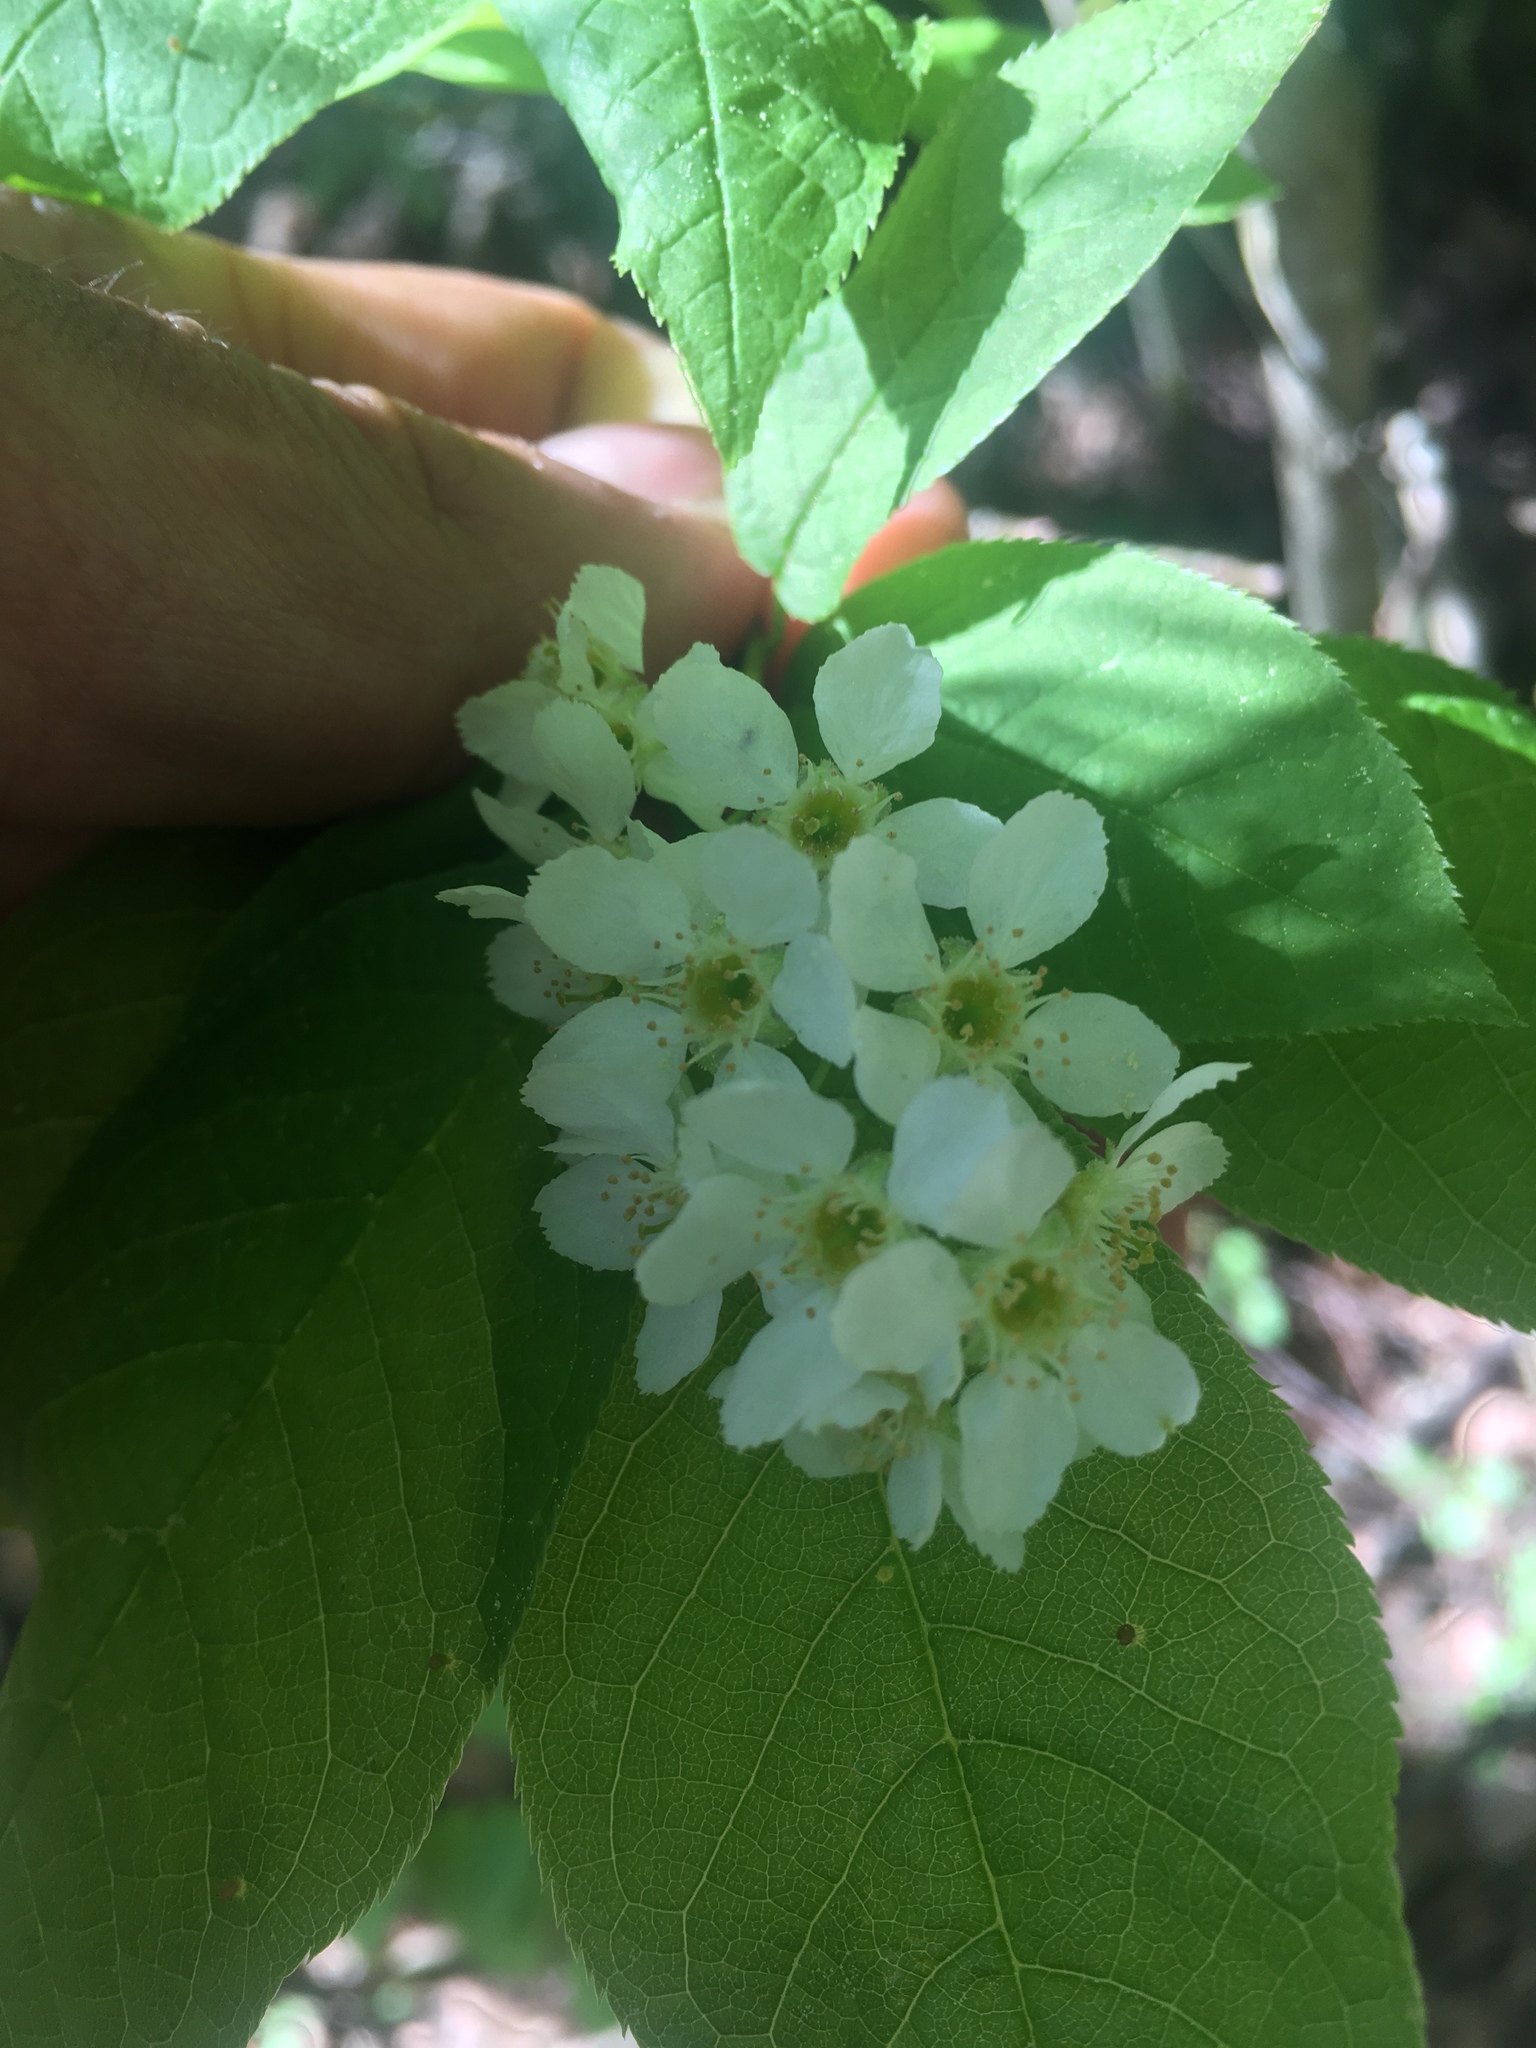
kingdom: Plantae
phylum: Tracheophyta
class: Magnoliopsida
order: Rosales
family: Rosaceae
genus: Prunus
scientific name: Prunus padus
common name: Bird cherry
